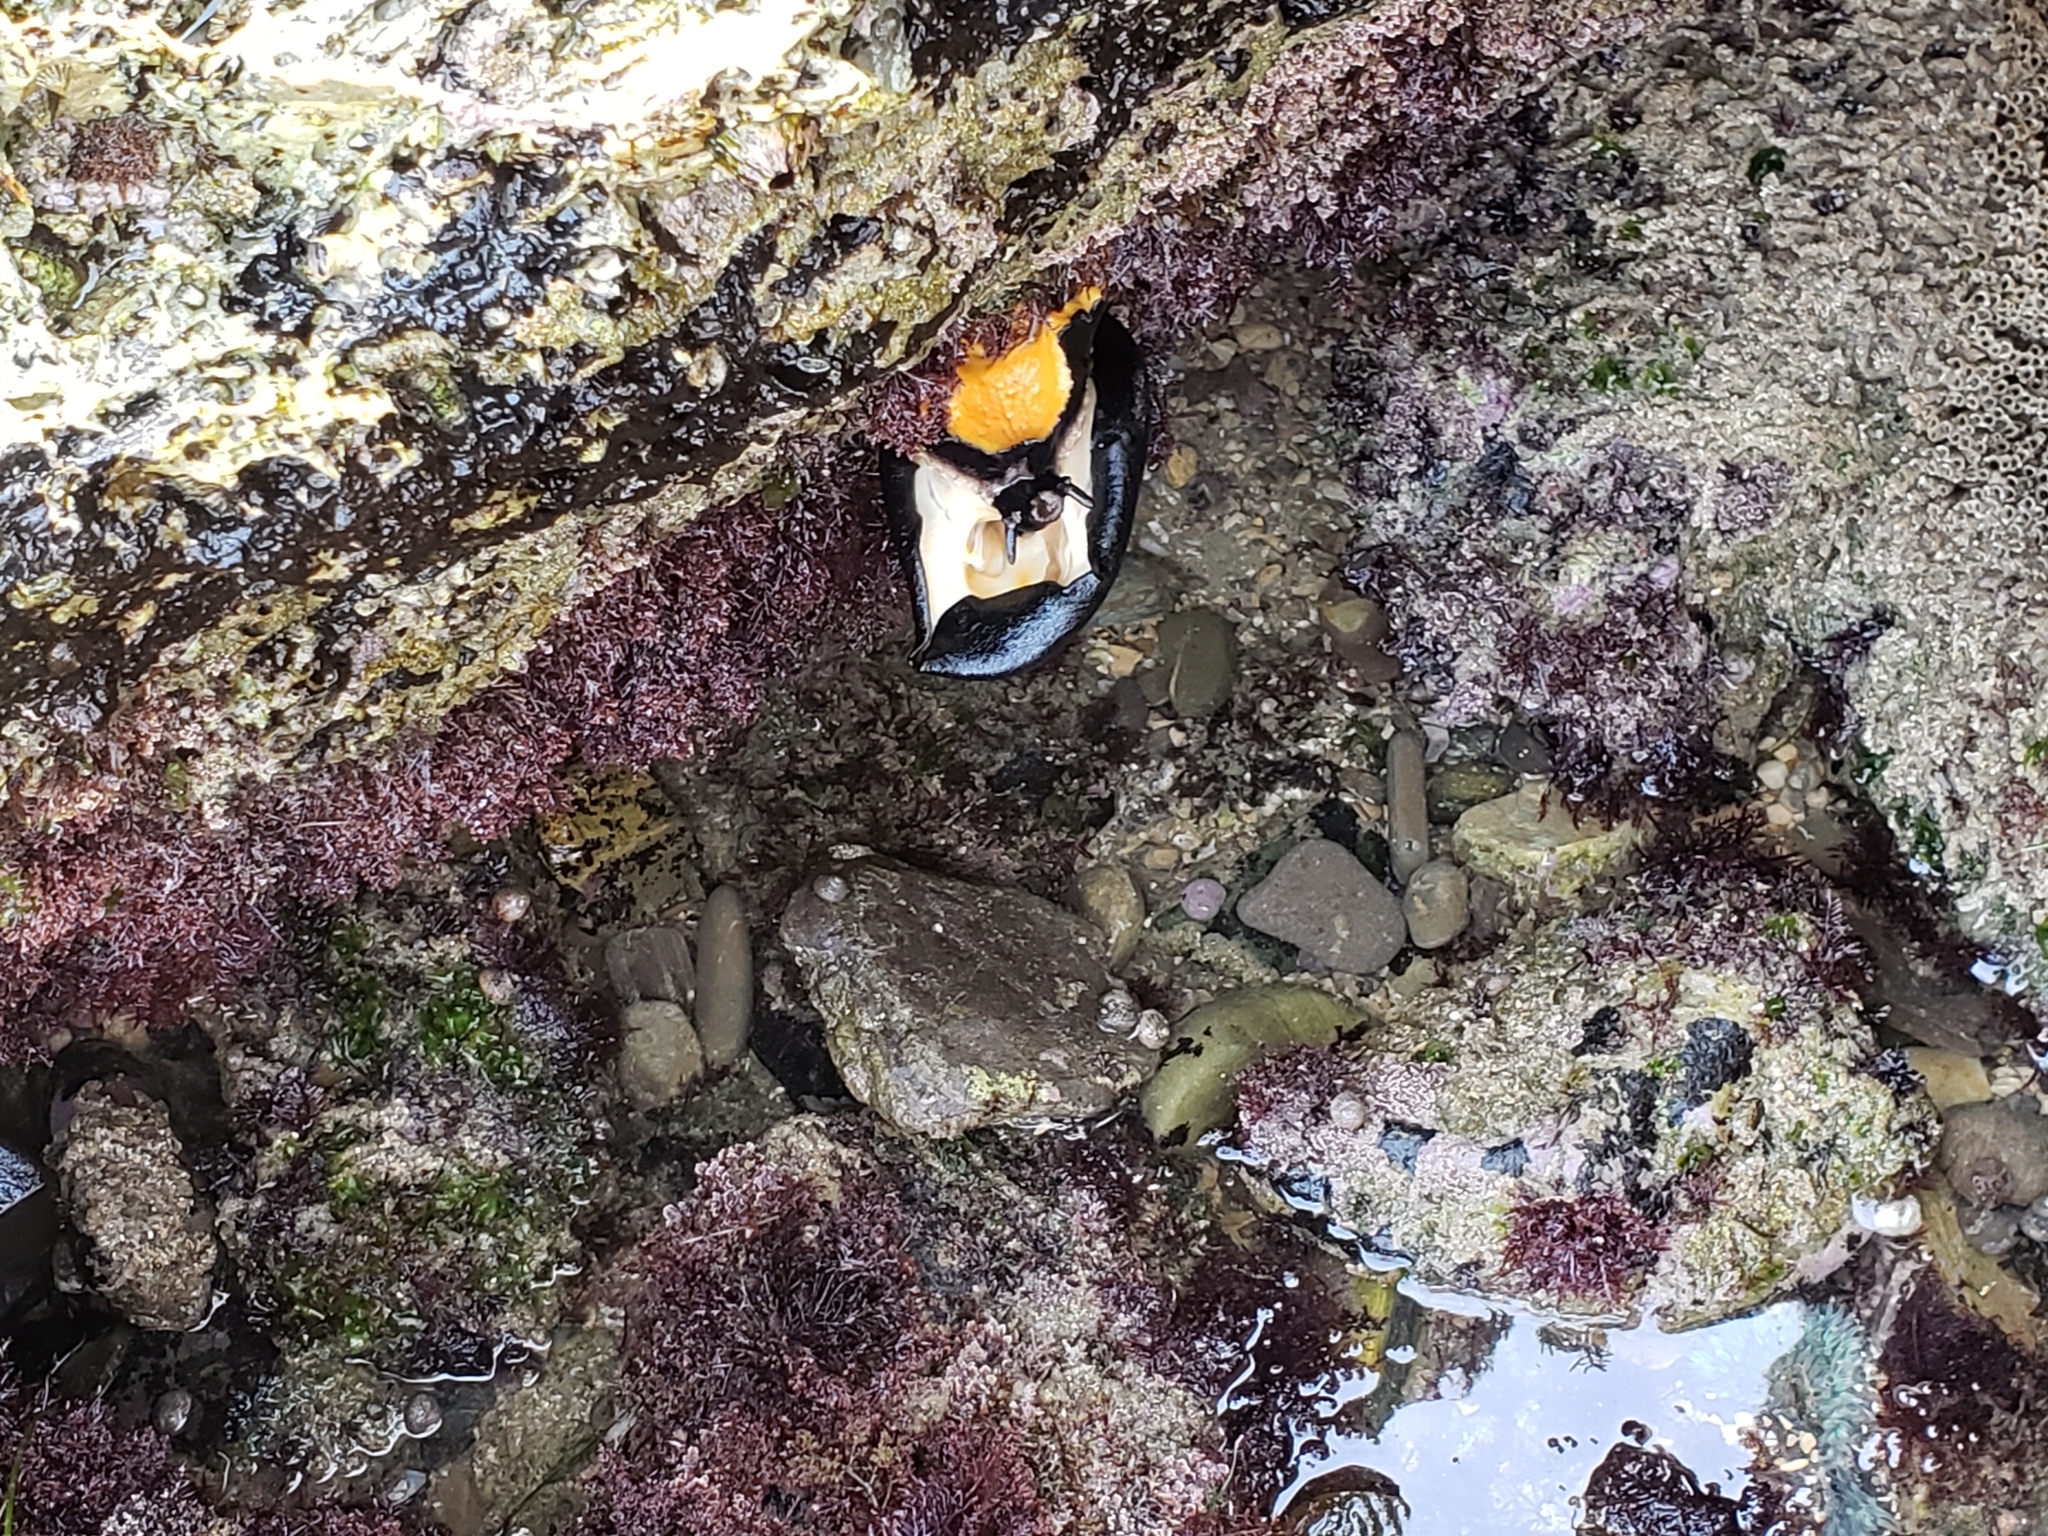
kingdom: Animalia
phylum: Mollusca
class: Gastropoda
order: Lepetellida
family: Fissurellidae
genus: Megathura
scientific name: Megathura crenulata
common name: Giant keyhole limpet
